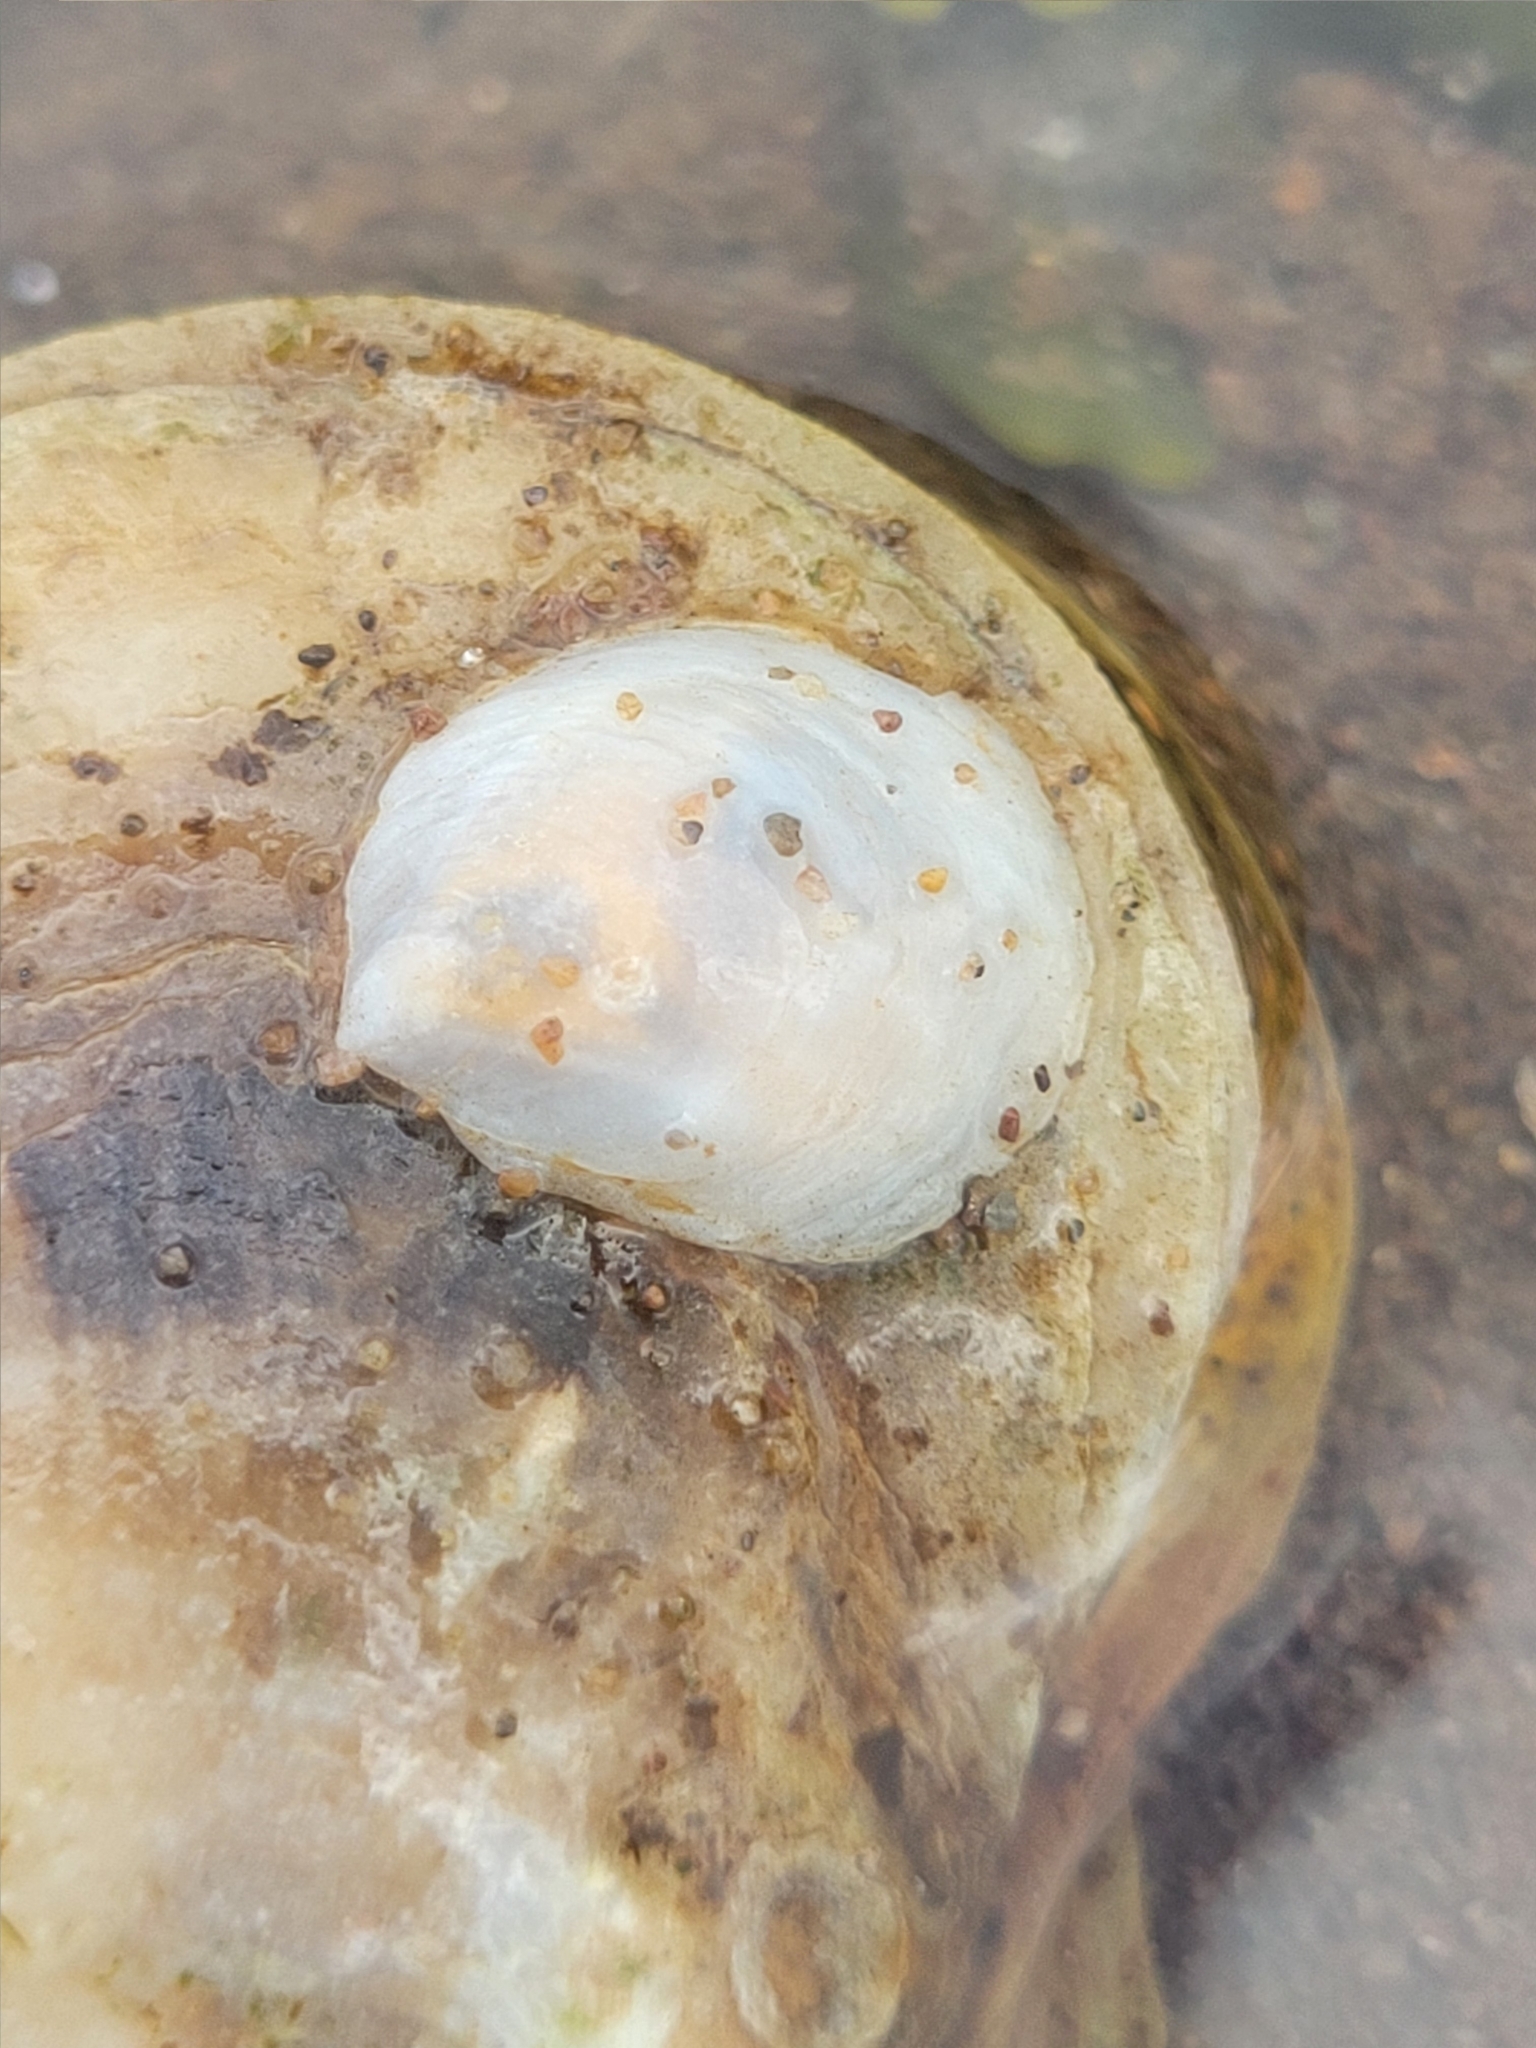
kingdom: Animalia
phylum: Mollusca
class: Gastropoda
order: Littorinimorpha
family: Calyptraeidae
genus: Crepidula
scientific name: Crepidula plana
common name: Eastern white slippersnail
